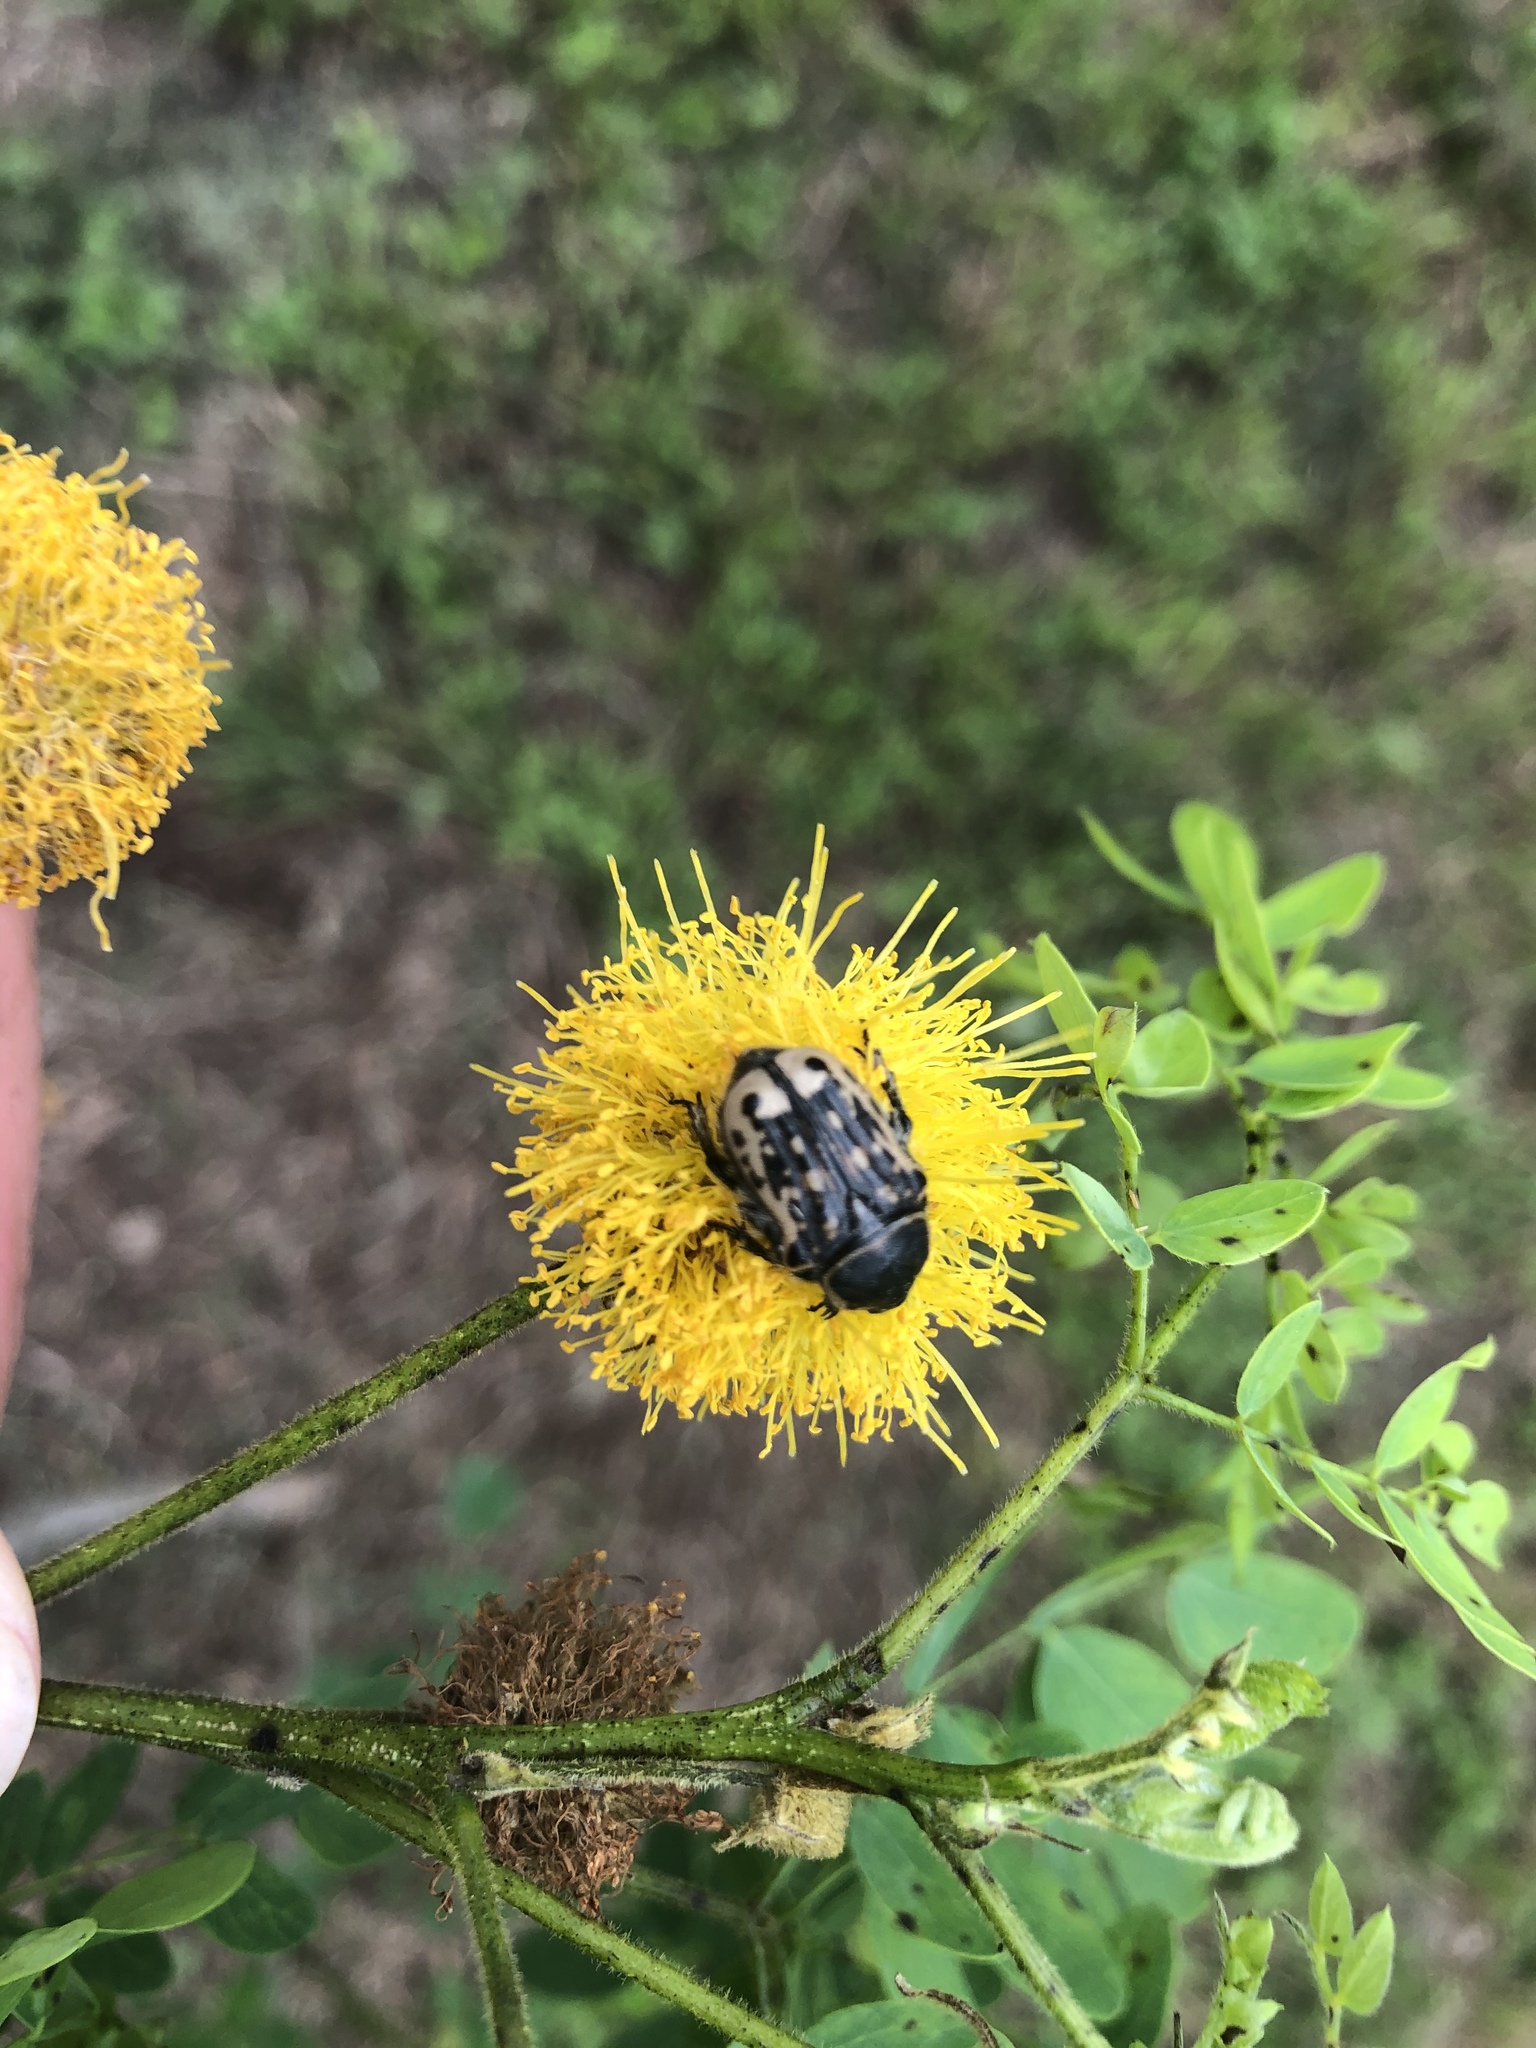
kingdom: Animalia
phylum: Arthropoda
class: Insecta
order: Coleoptera
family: Scarabaeidae
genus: Euphoria
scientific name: Euphoria kernii
